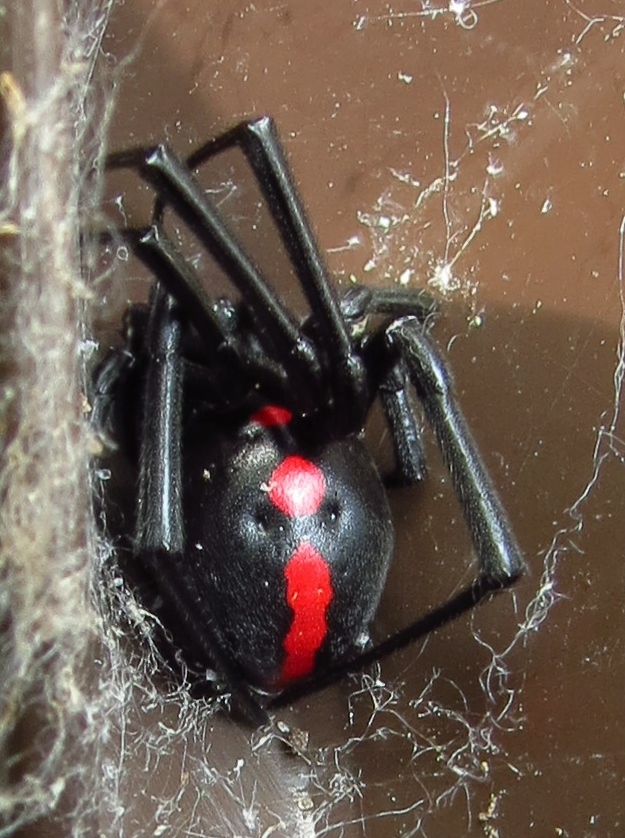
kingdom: Animalia
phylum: Arthropoda
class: Arachnida
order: Araneae
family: Theridiidae
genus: Latrodectus
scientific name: Latrodectus mactans
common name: Cobweb spiders
